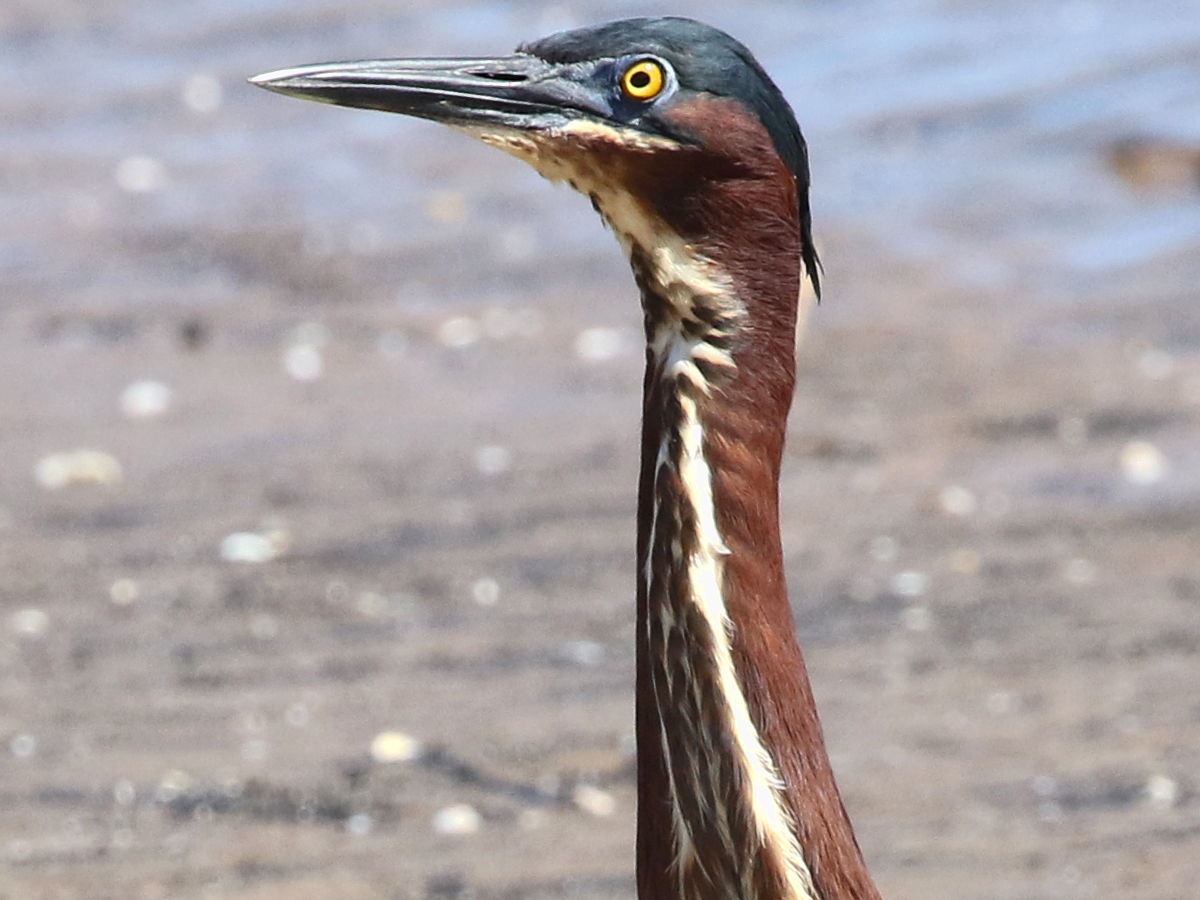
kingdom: Animalia
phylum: Chordata
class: Aves
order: Pelecaniformes
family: Ardeidae
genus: Butorides
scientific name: Butorides virescens
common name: Green heron
